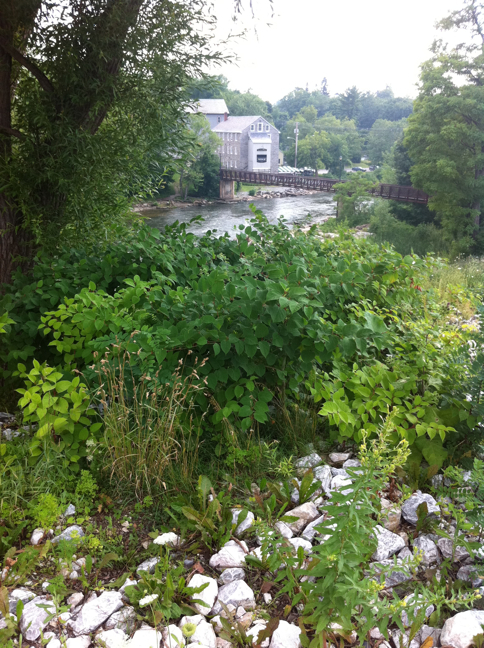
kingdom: Plantae
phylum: Tracheophyta
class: Magnoliopsida
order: Caryophyllales
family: Polygonaceae
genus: Reynoutria
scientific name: Reynoutria japonica
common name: Japanese knotweed
